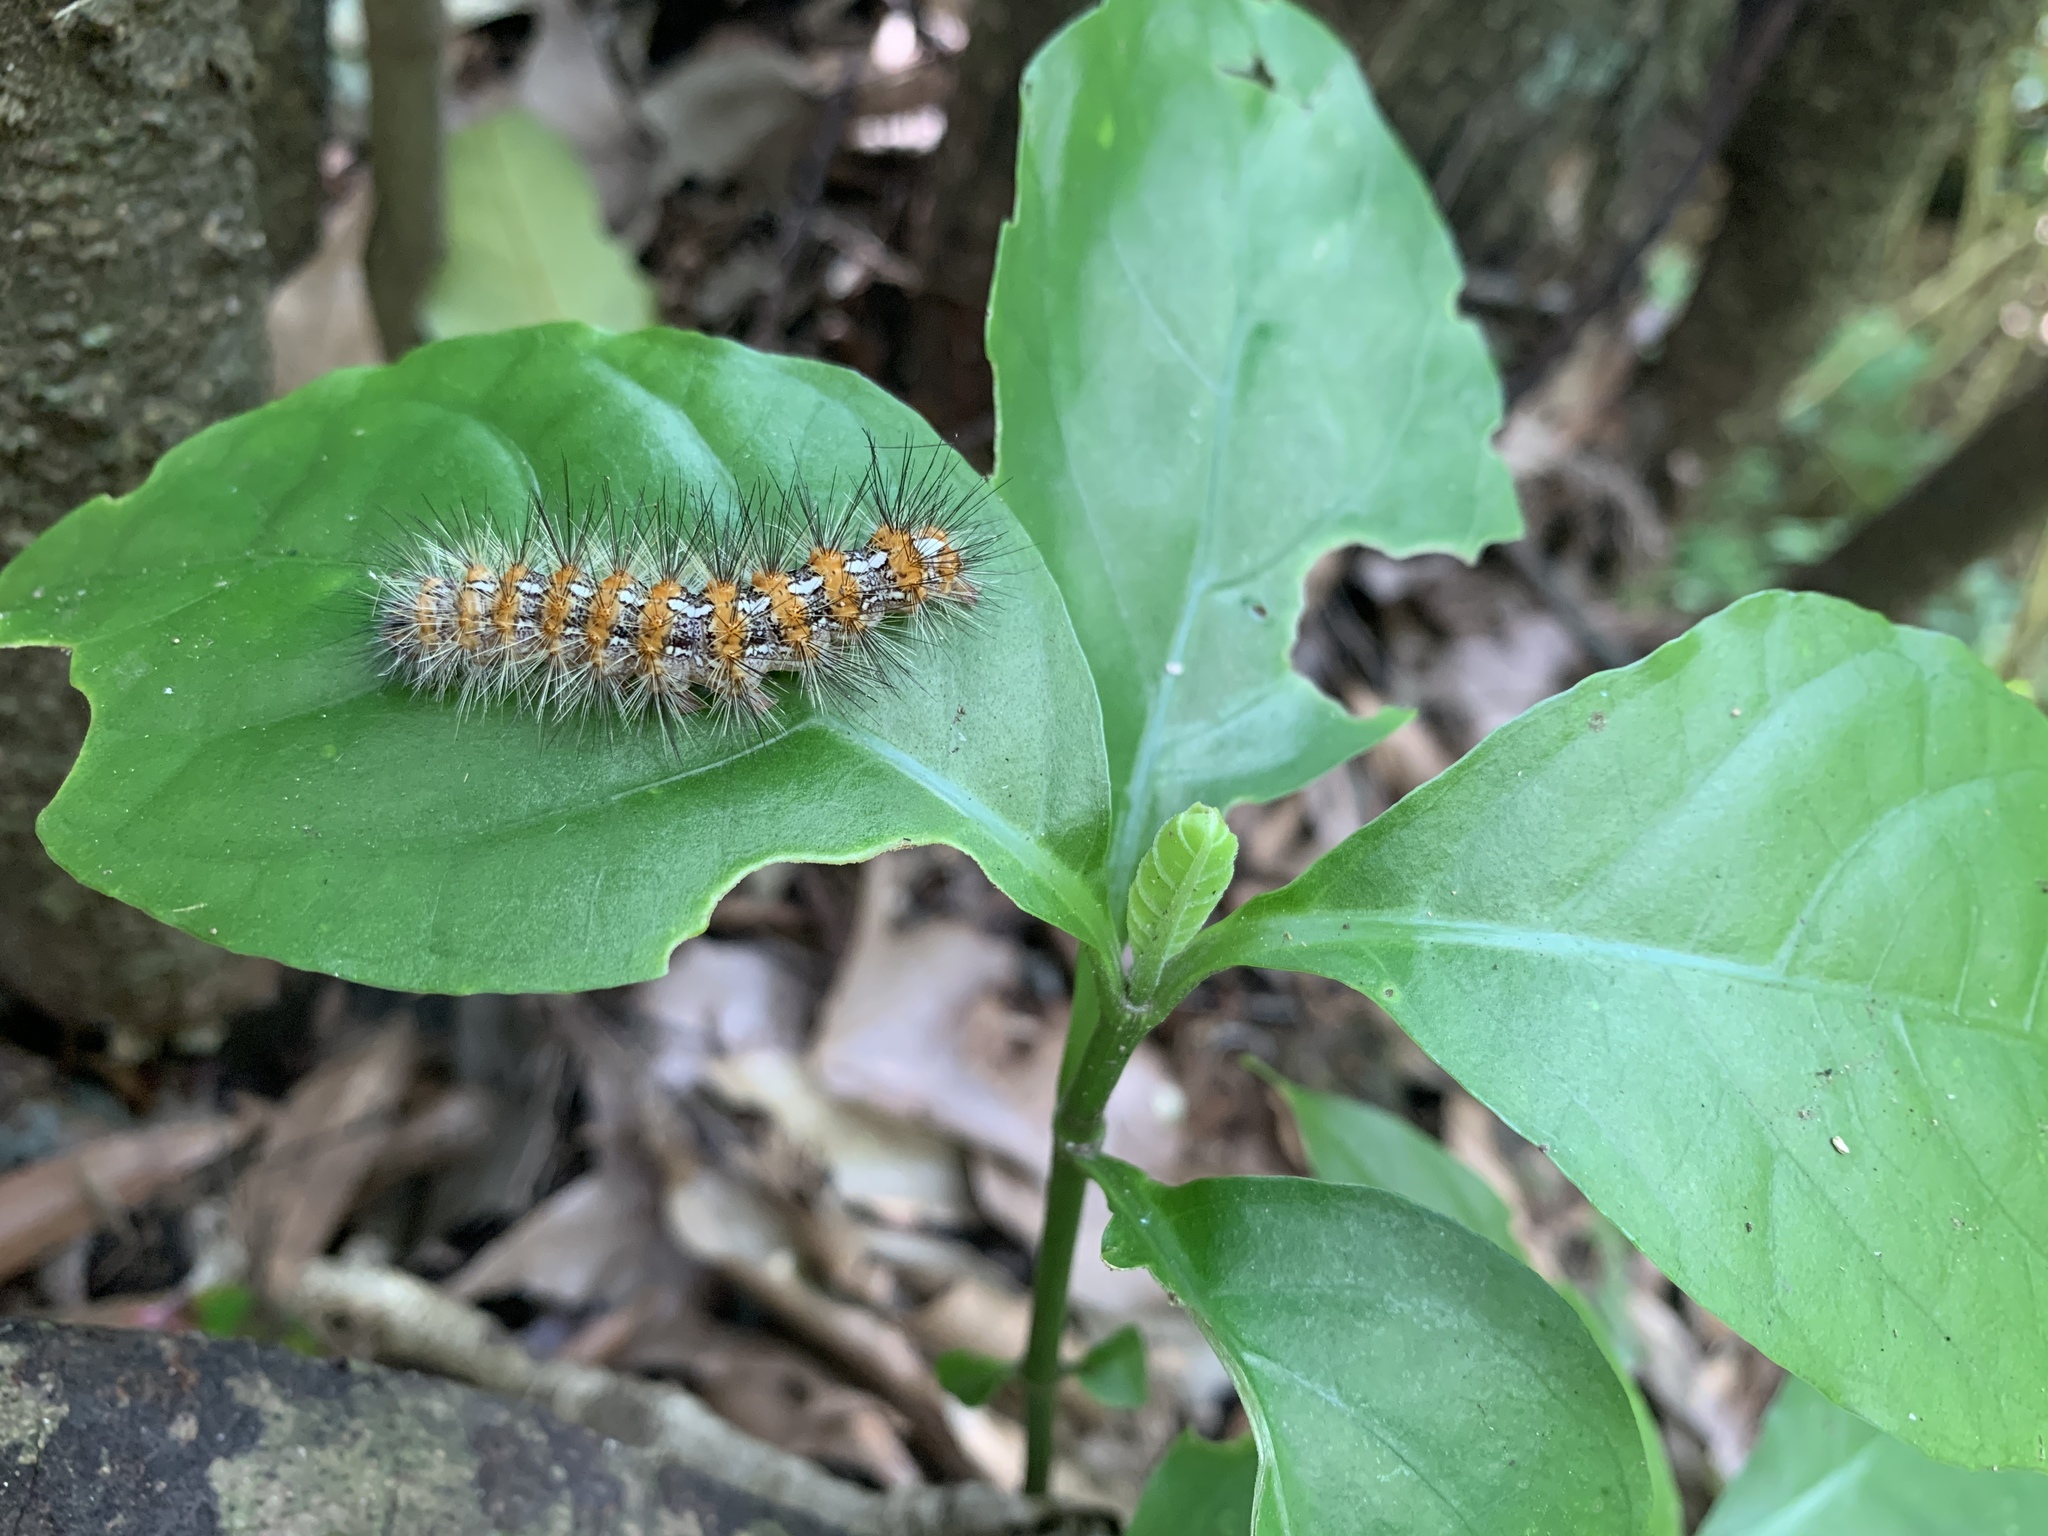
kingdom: Animalia
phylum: Arthropoda
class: Insecta
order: Lepidoptera
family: Erebidae
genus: Lemyra
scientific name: Lemyra imparilis
